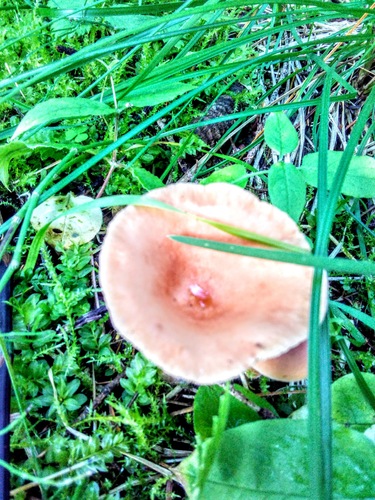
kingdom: Fungi
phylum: Basidiomycota
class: Agaricomycetes
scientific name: Agaricomycetes
